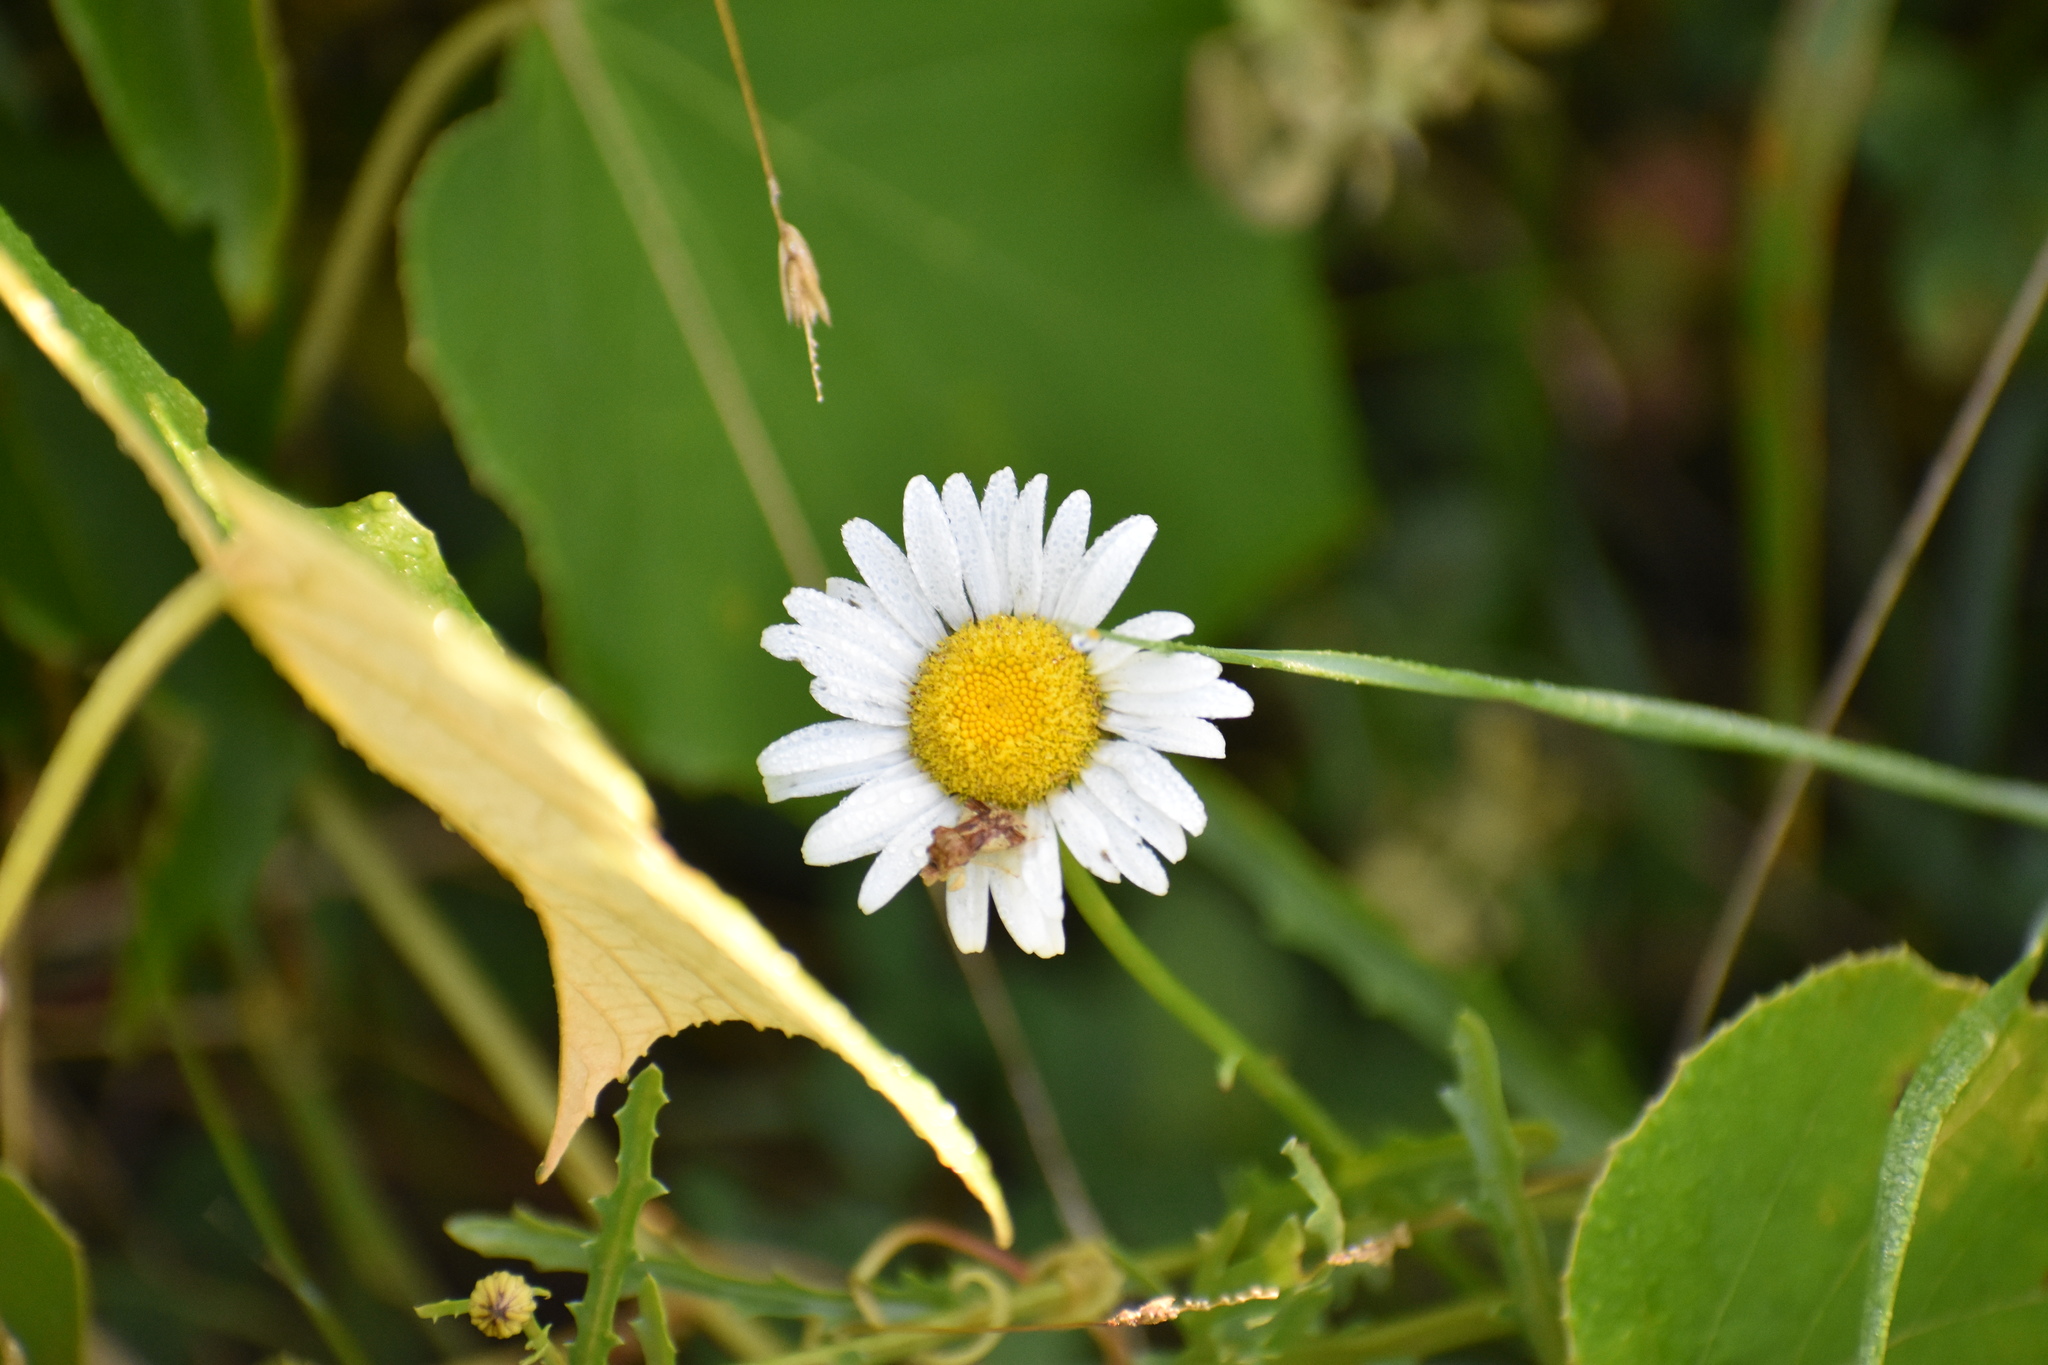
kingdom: Plantae
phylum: Tracheophyta
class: Magnoliopsida
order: Asterales
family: Asteraceae
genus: Leucanthemum
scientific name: Leucanthemum vulgare
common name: Oxeye daisy
